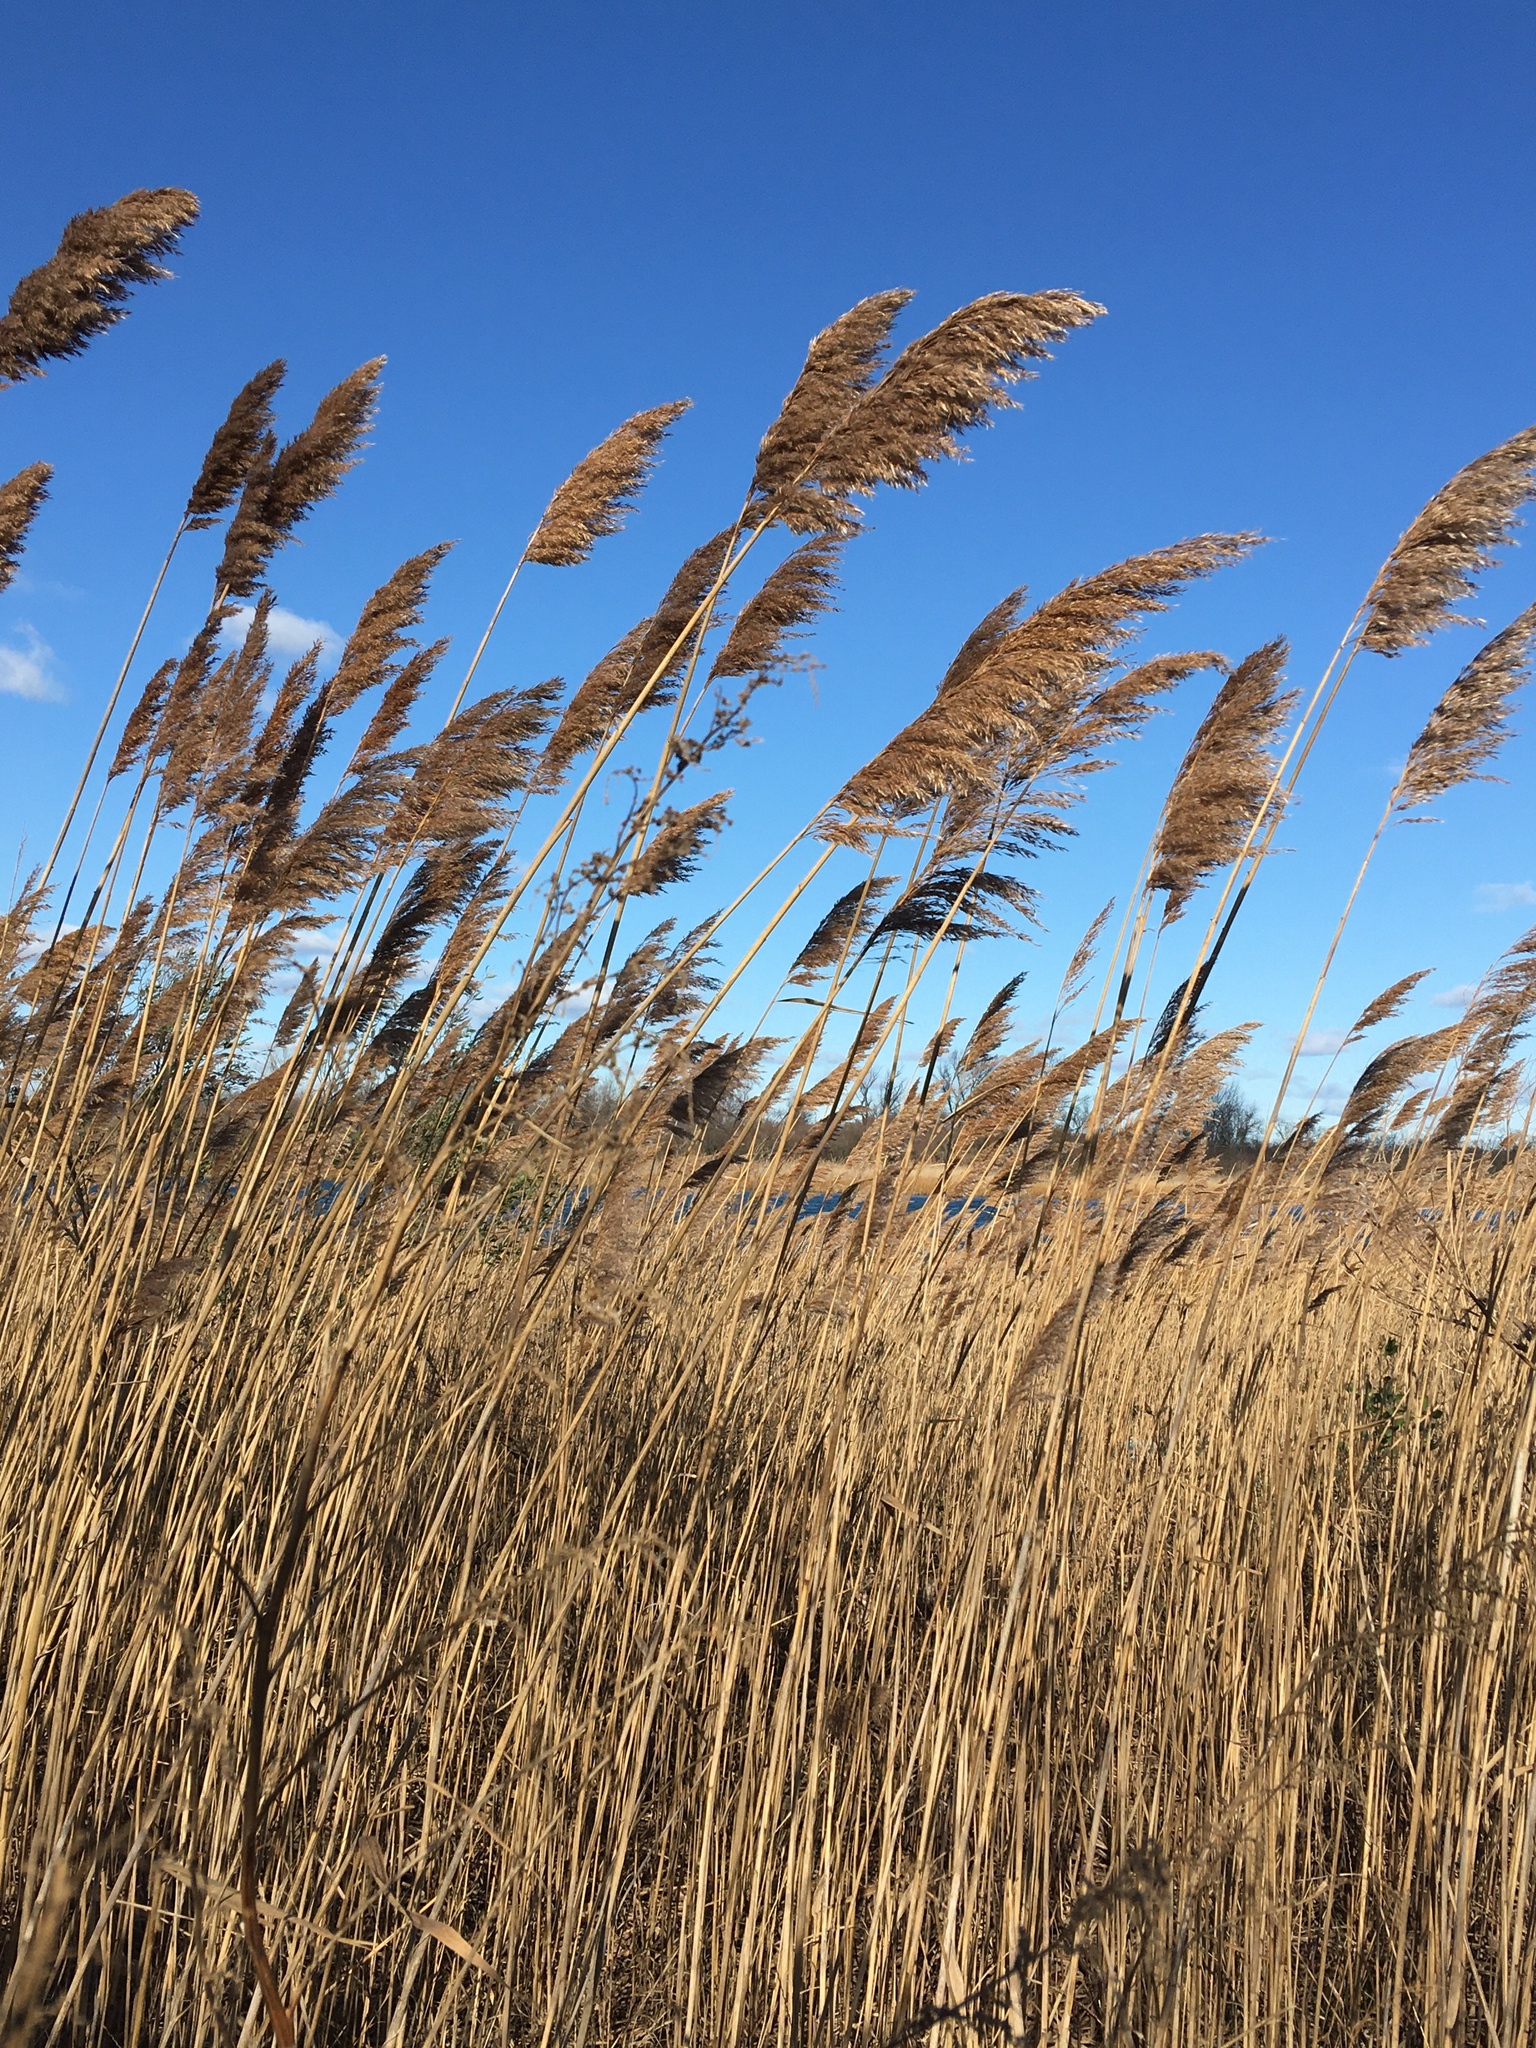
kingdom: Plantae
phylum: Tracheophyta
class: Liliopsida
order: Poales
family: Poaceae
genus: Phragmites
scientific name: Phragmites australis
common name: Common reed
